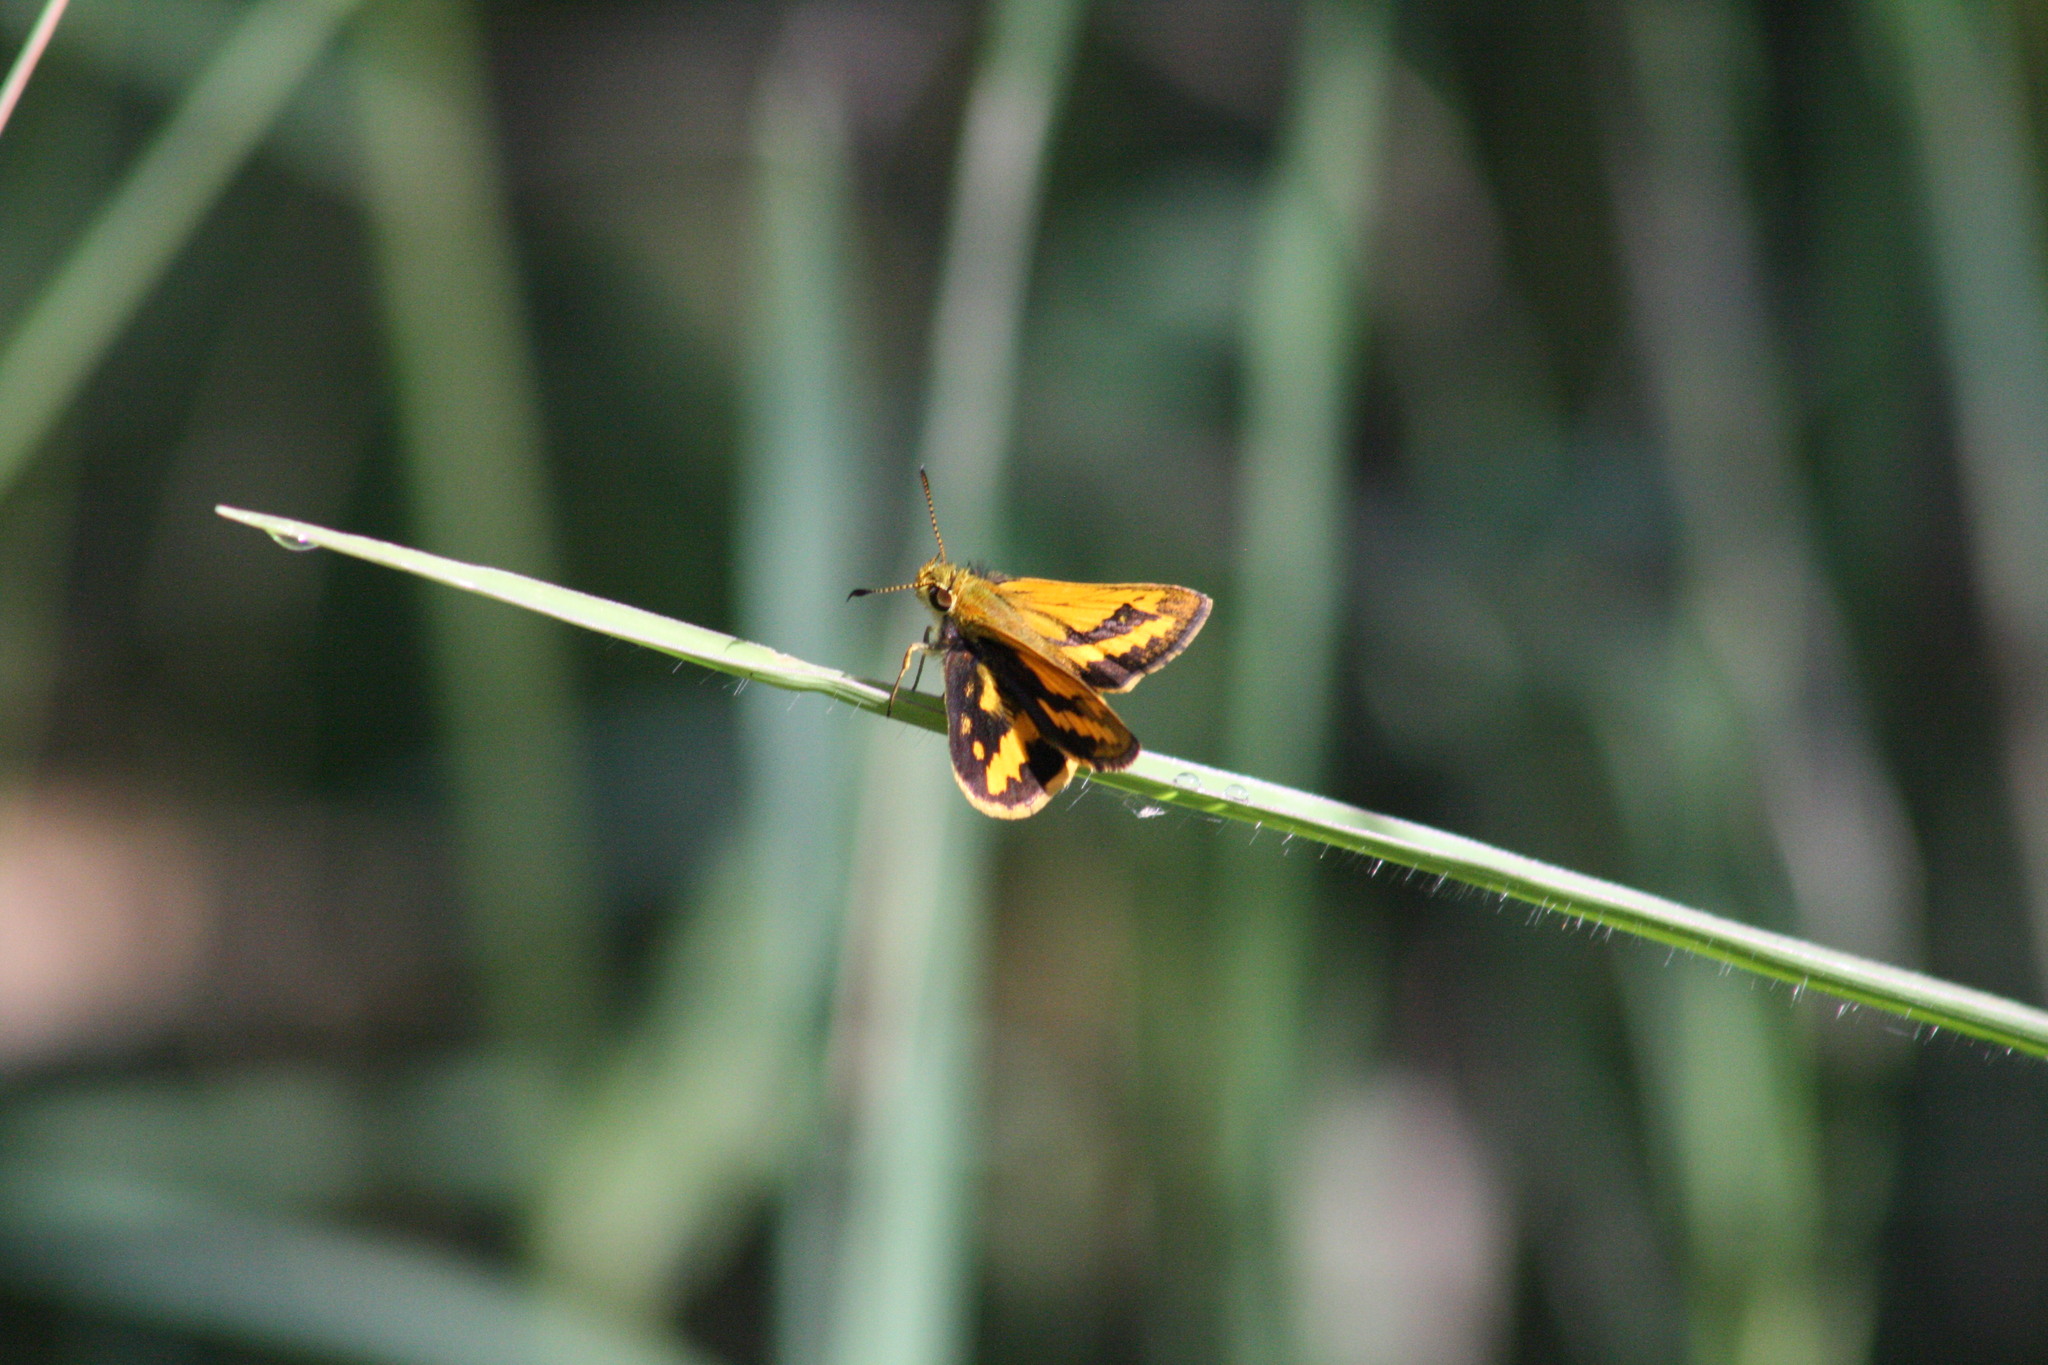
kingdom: Animalia
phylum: Arthropoda
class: Insecta
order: Lepidoptera
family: Hesperiidae
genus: Suniana
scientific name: Suniana sunias
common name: Wide-brand grass-dart
